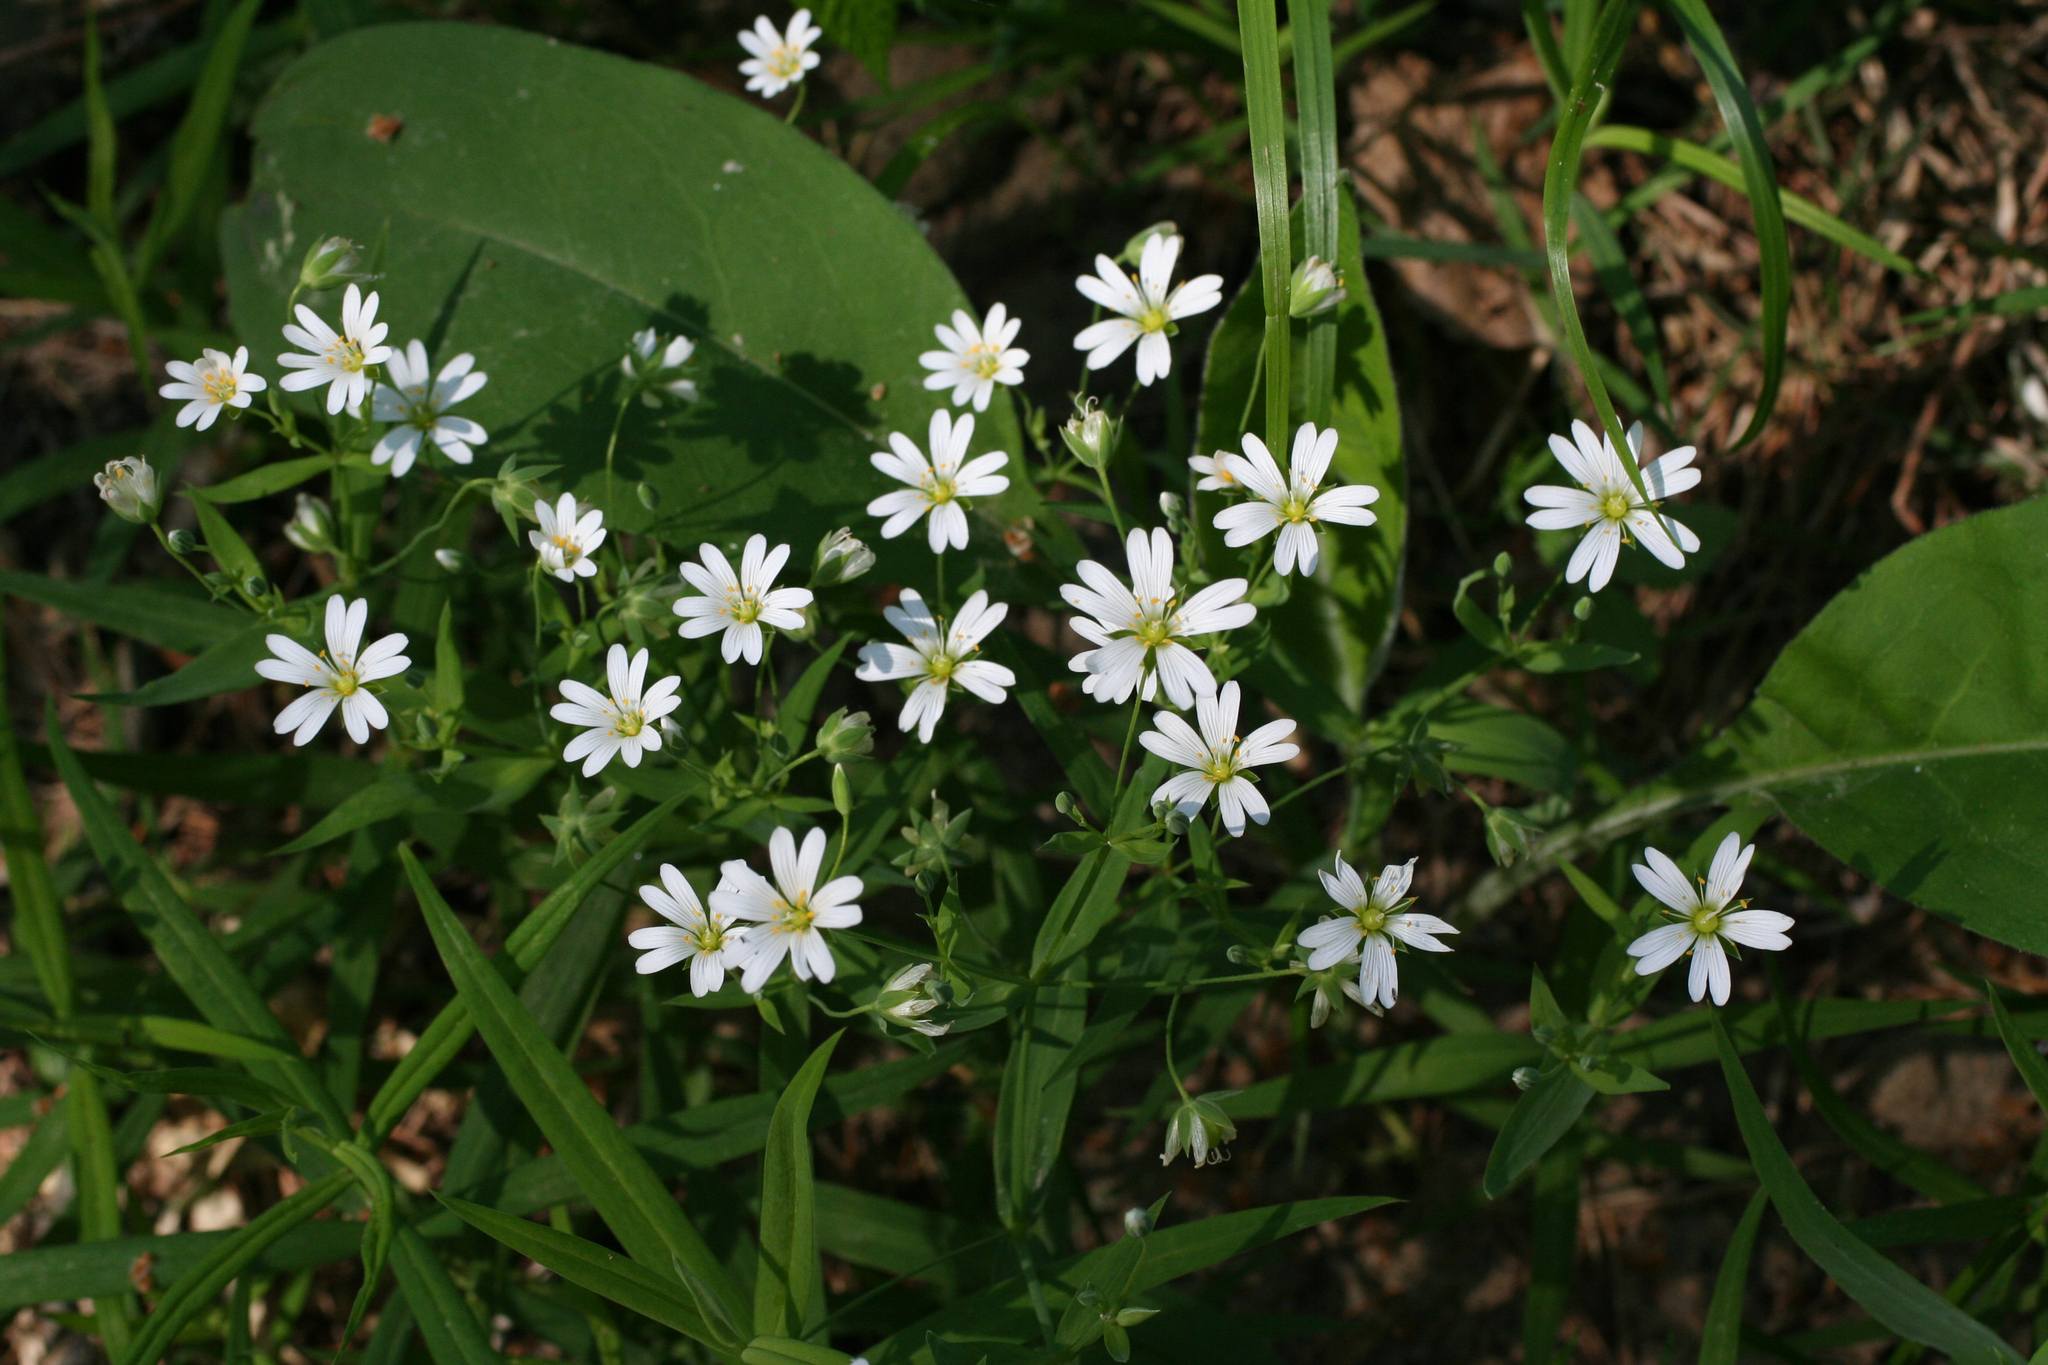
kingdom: Plantae
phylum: Tracheophyta
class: Magnoliopsida
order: Caryophyllales
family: Caryophyllaceae
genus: Rabelera
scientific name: Rabelera holostea
